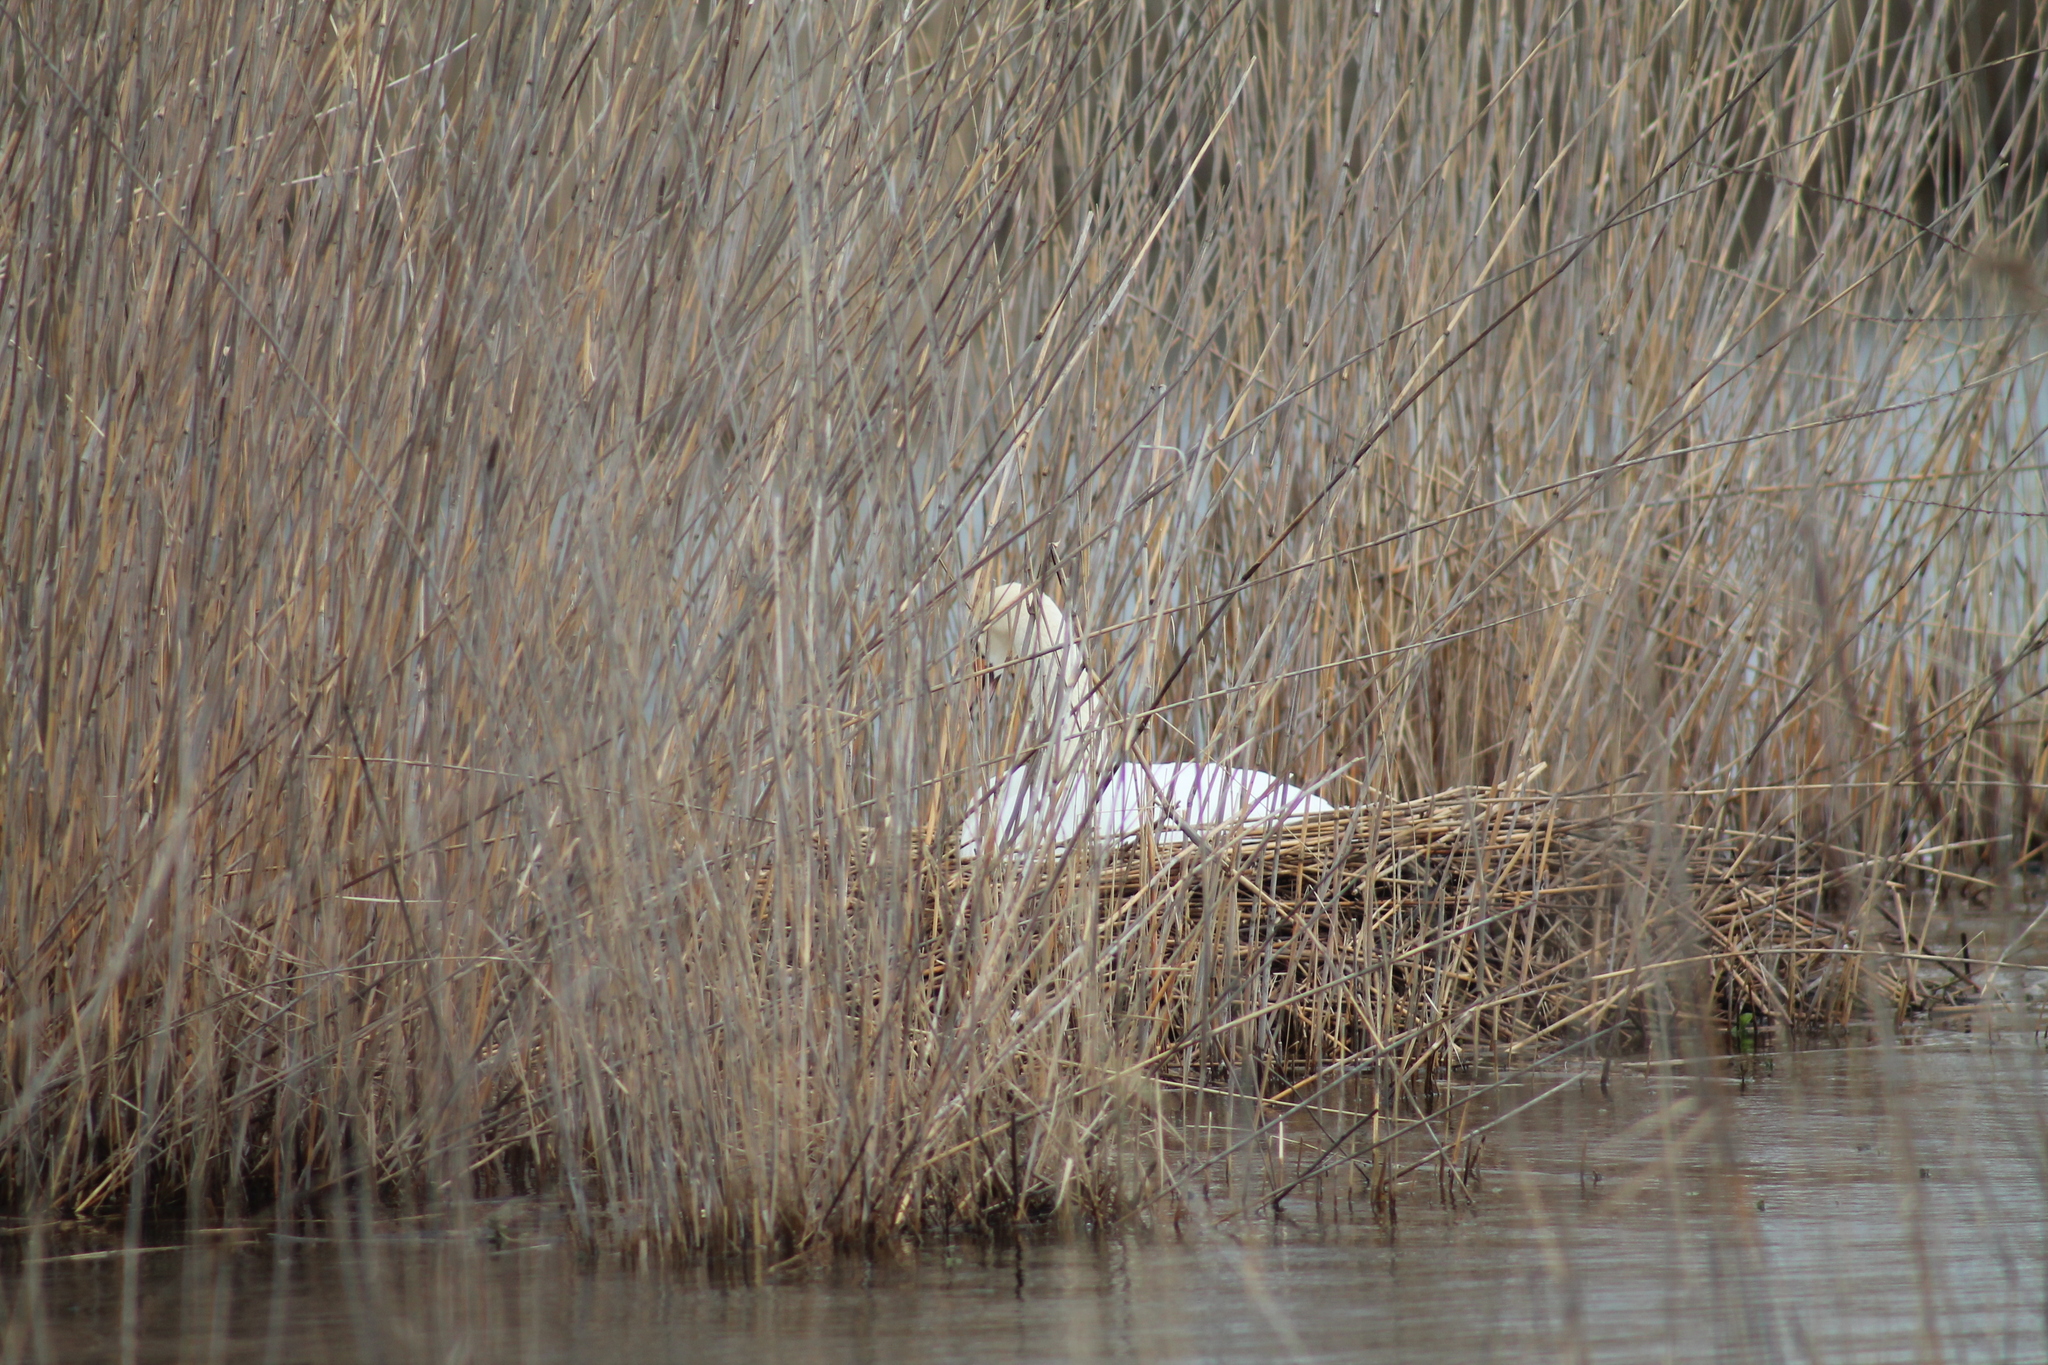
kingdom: Animalia
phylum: Chordata
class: Aves
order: Anseriformes
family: Anatidae
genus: Cygnus
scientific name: Cygnus olor
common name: Mute swan
